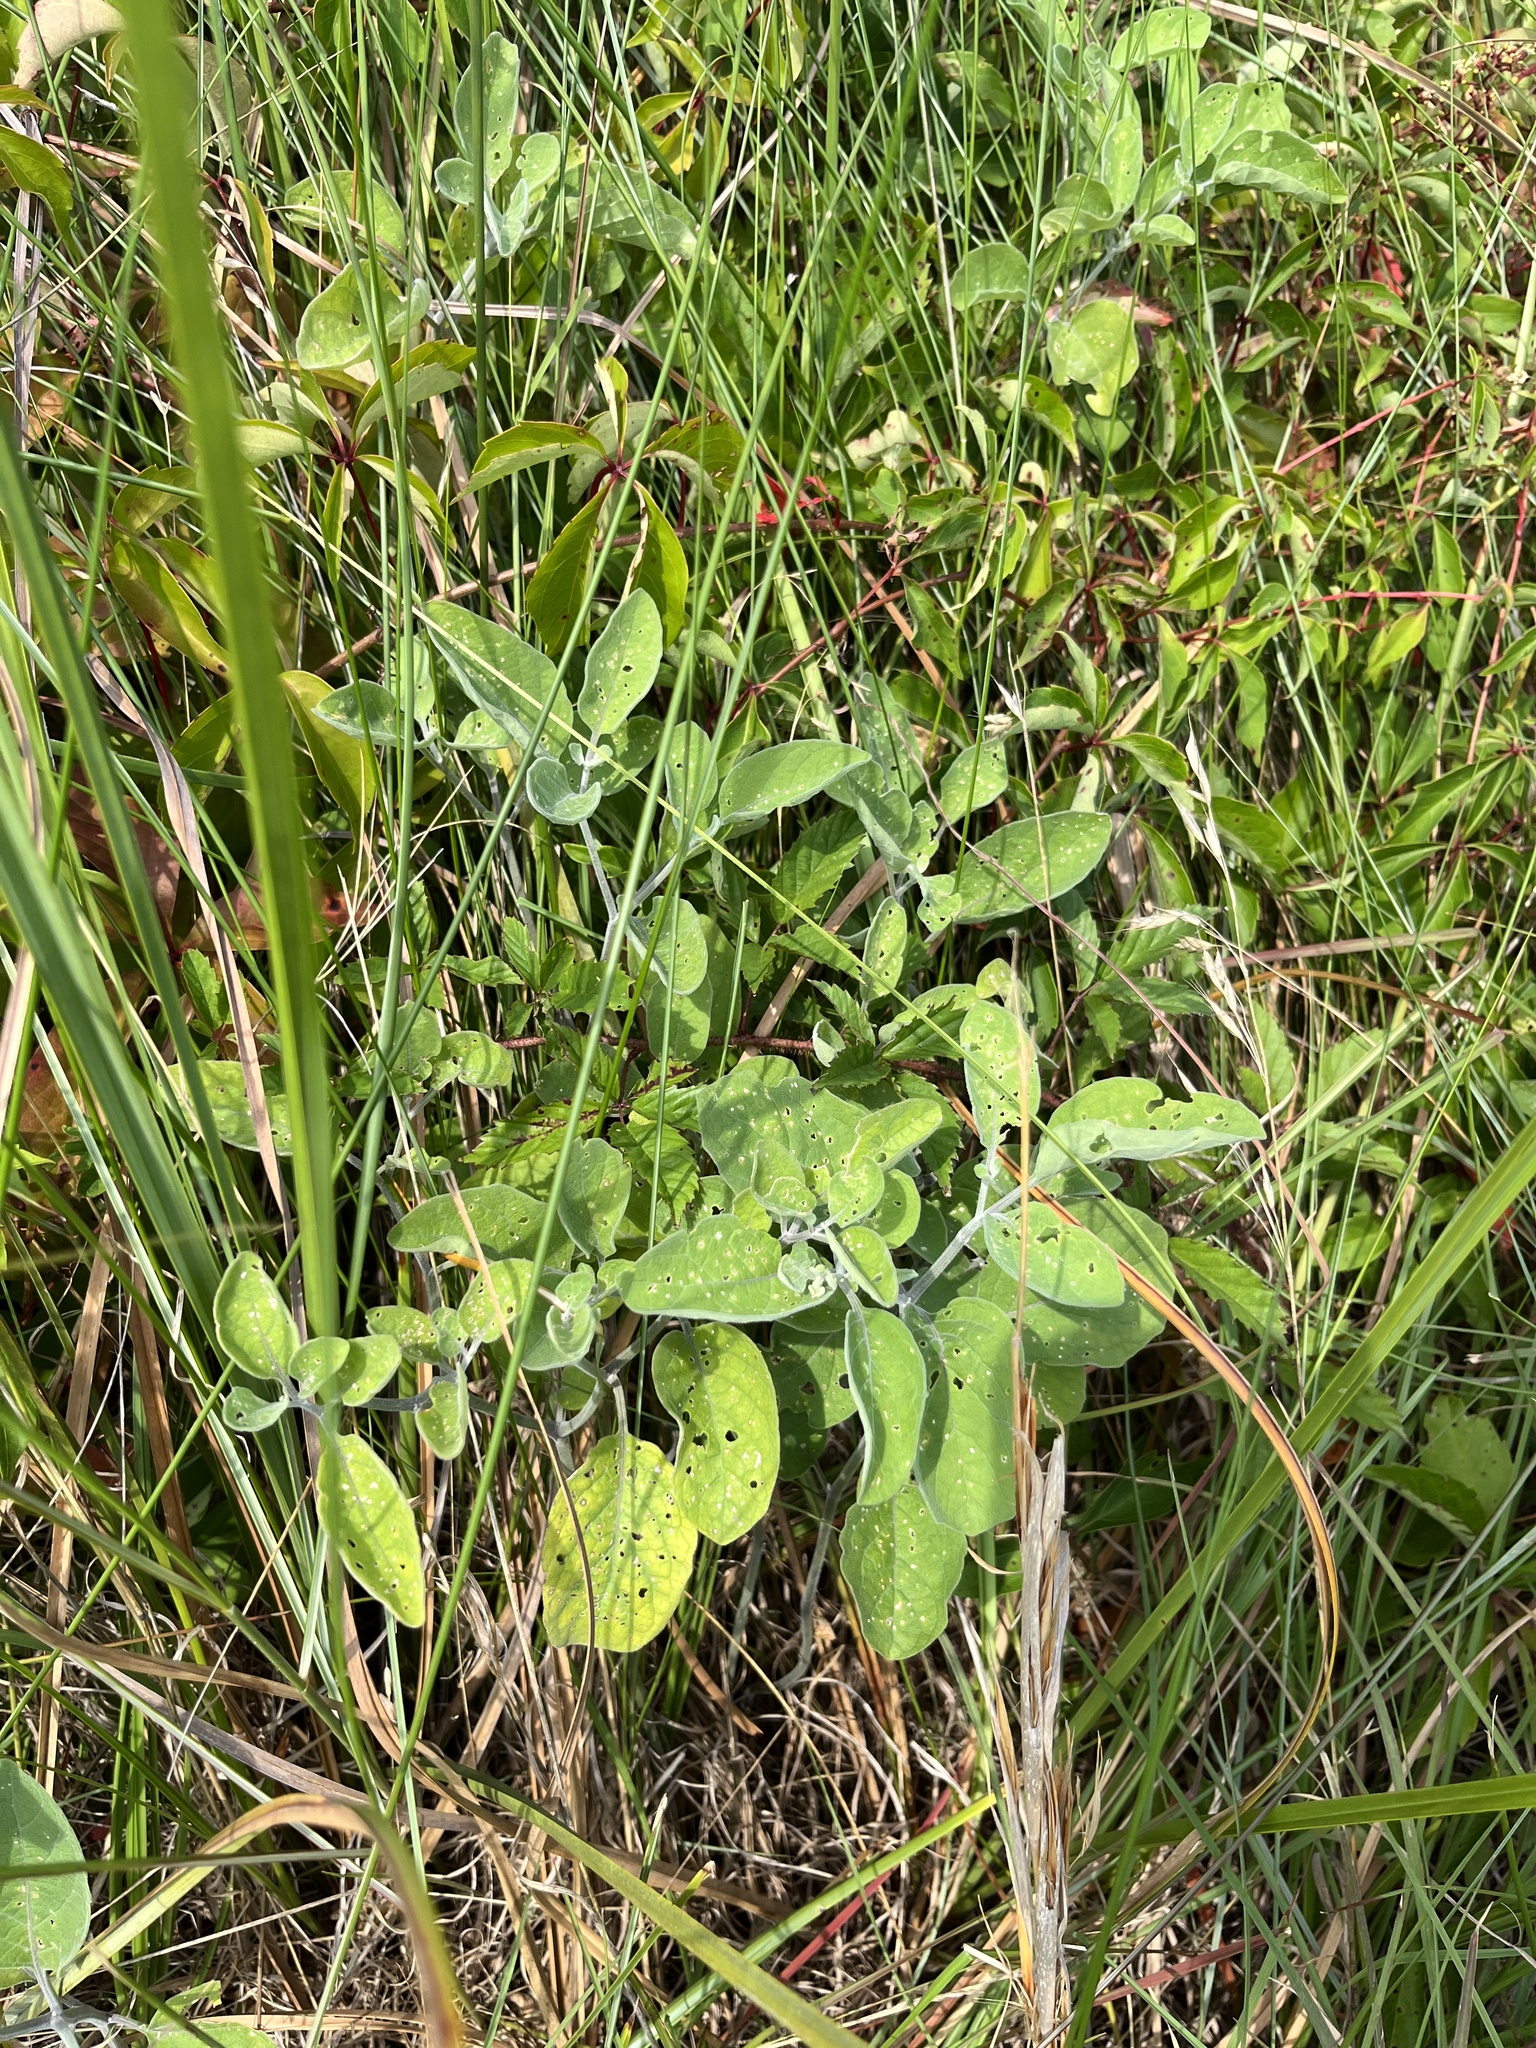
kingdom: Plantae
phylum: Tracheophyta
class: Magnoliopsida
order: Solanales
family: Solanaceae
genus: Physalis
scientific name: Physalis walteri
